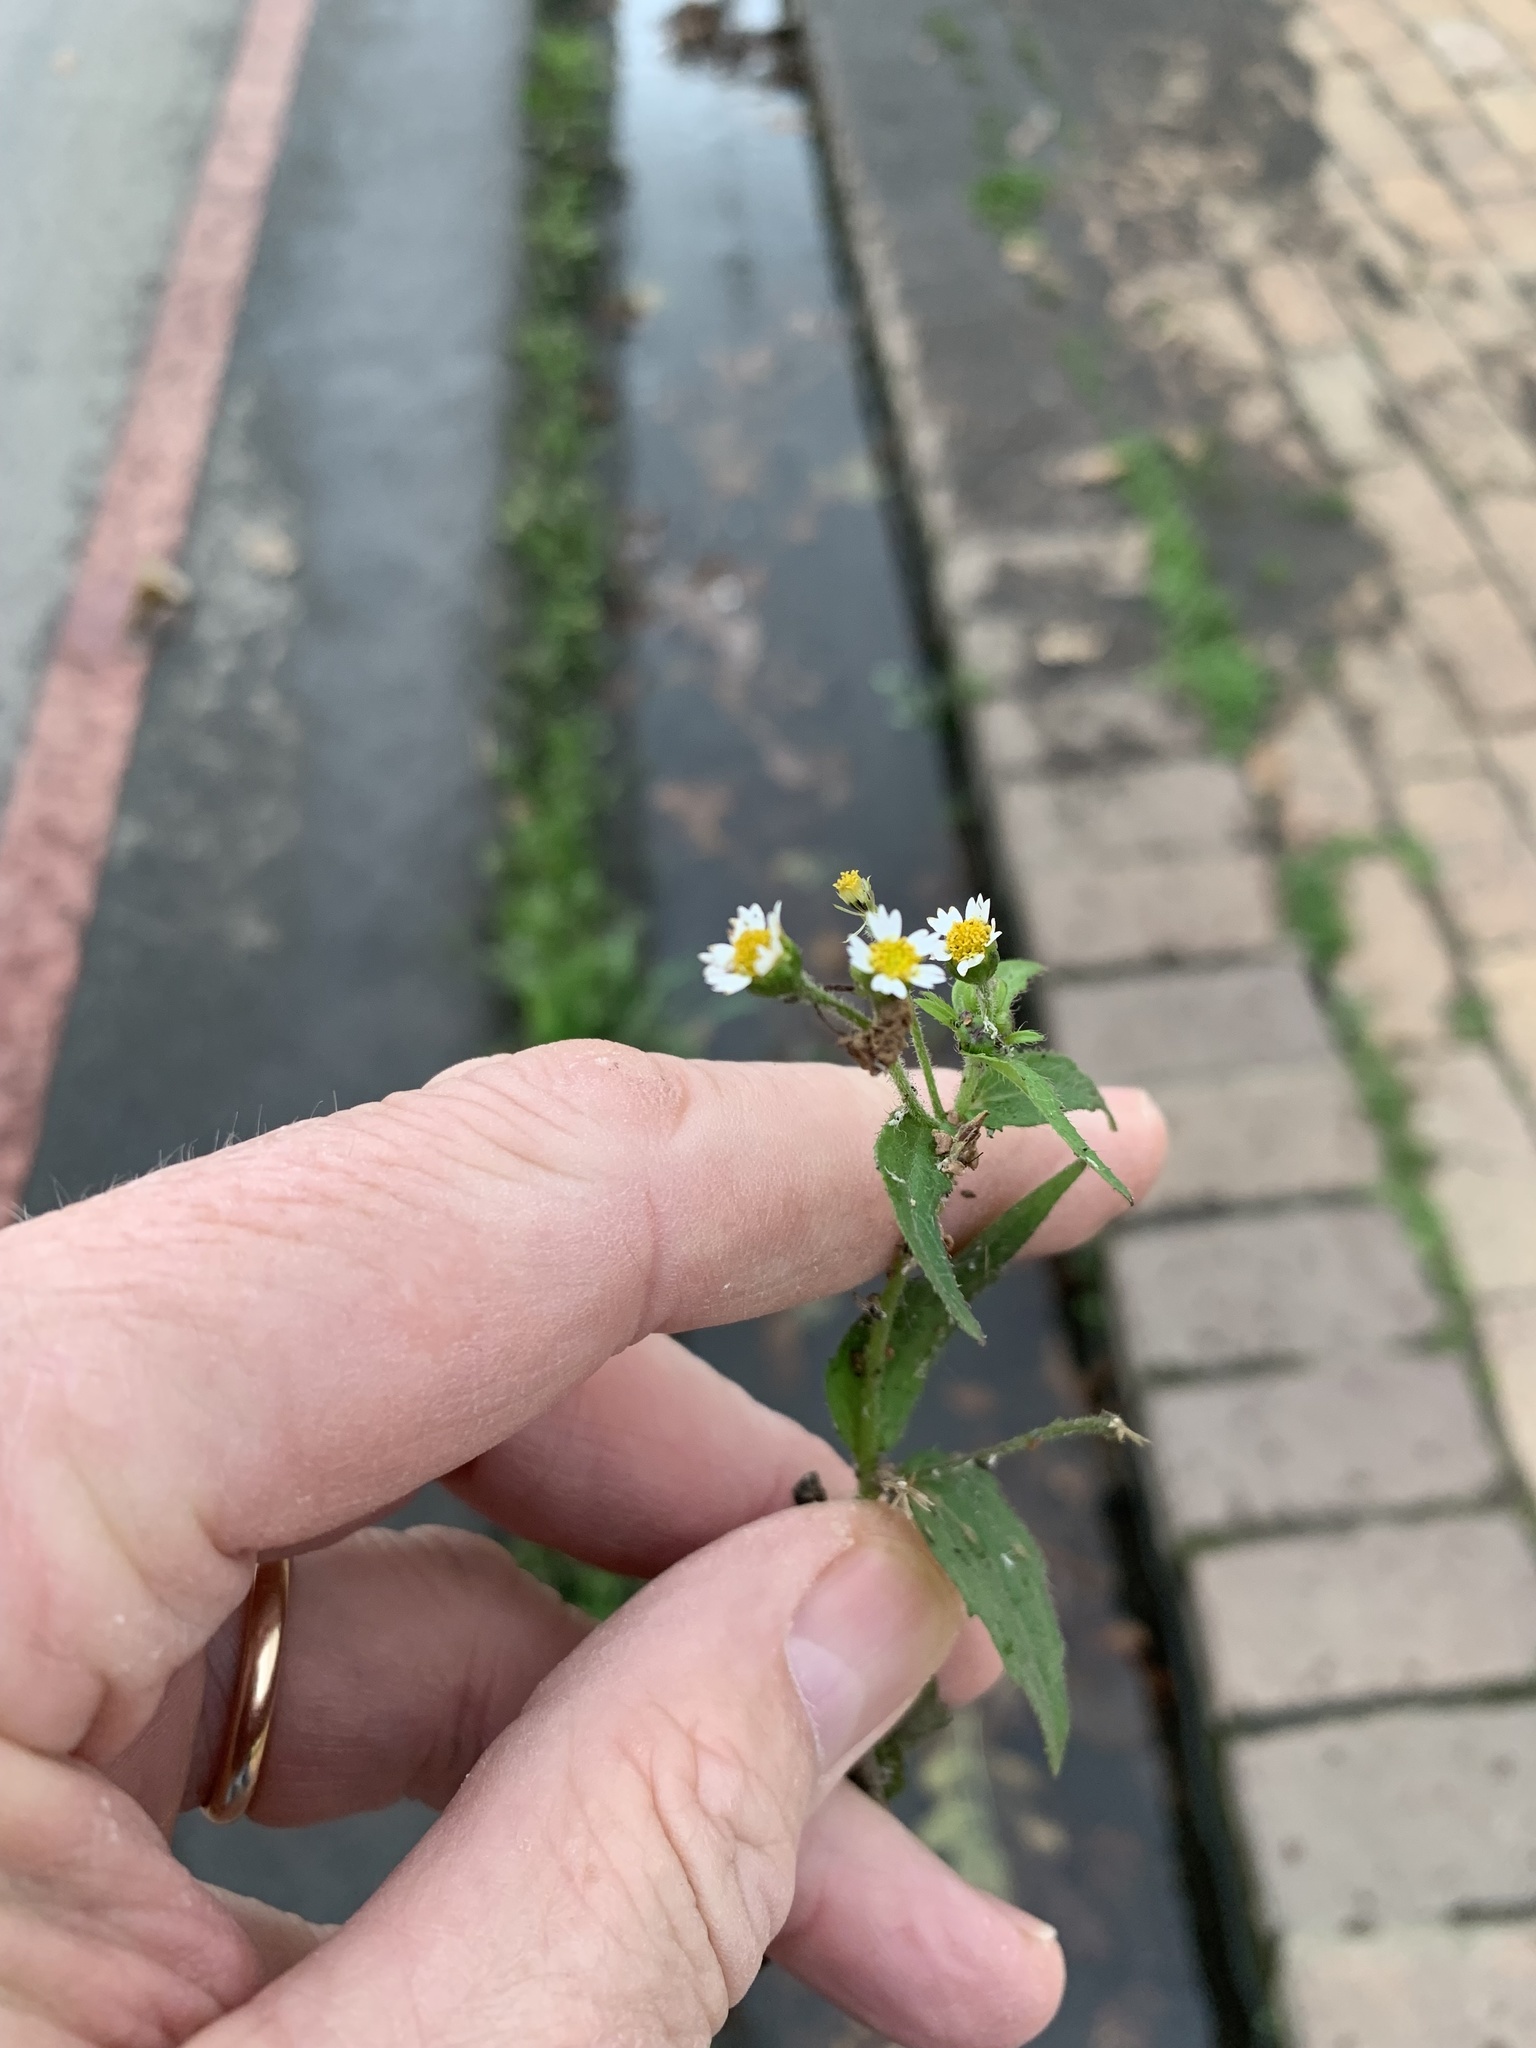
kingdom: Plantae
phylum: Tracheophyta
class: Magnoliopsida
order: Asterales
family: Asteraceae
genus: Galinsoga
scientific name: Galinsoga quadriradiata
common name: Shaggy soldier
